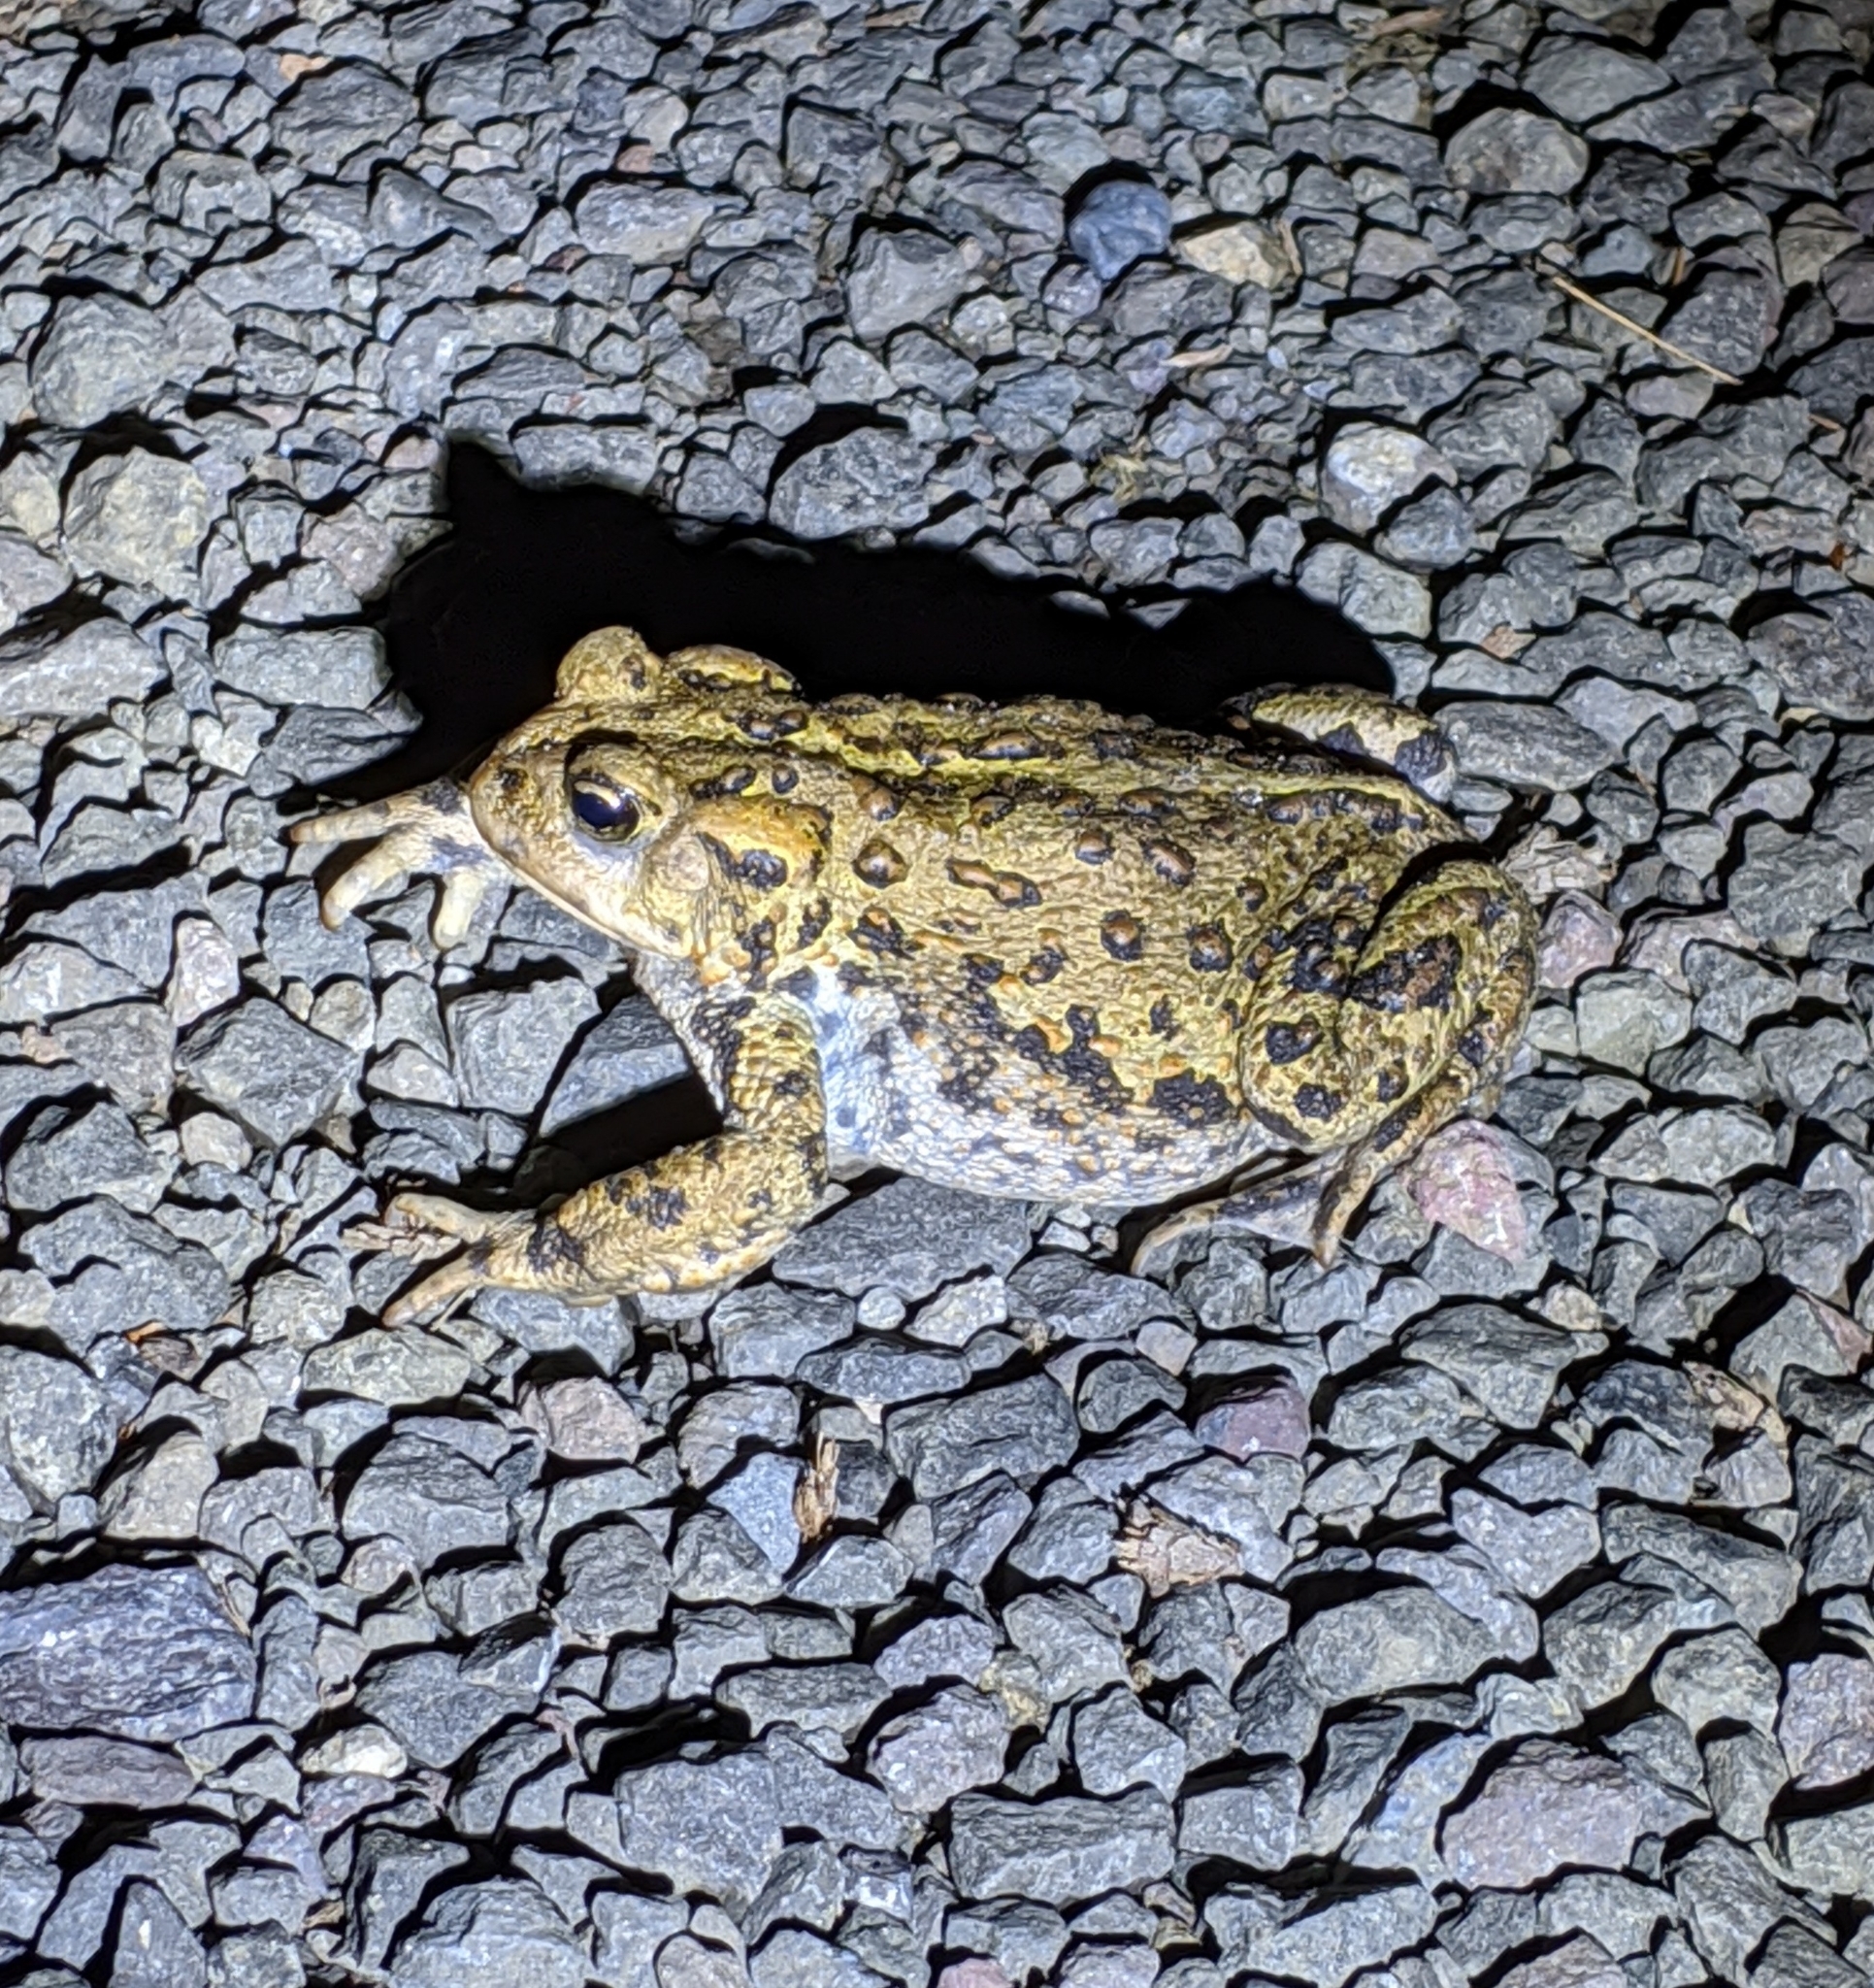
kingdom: Animalia
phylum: Chordata
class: Amphibia
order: Anura
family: Bufonidae
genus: Anaxyrus
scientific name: Anaxyrus boreas
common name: Western toad
